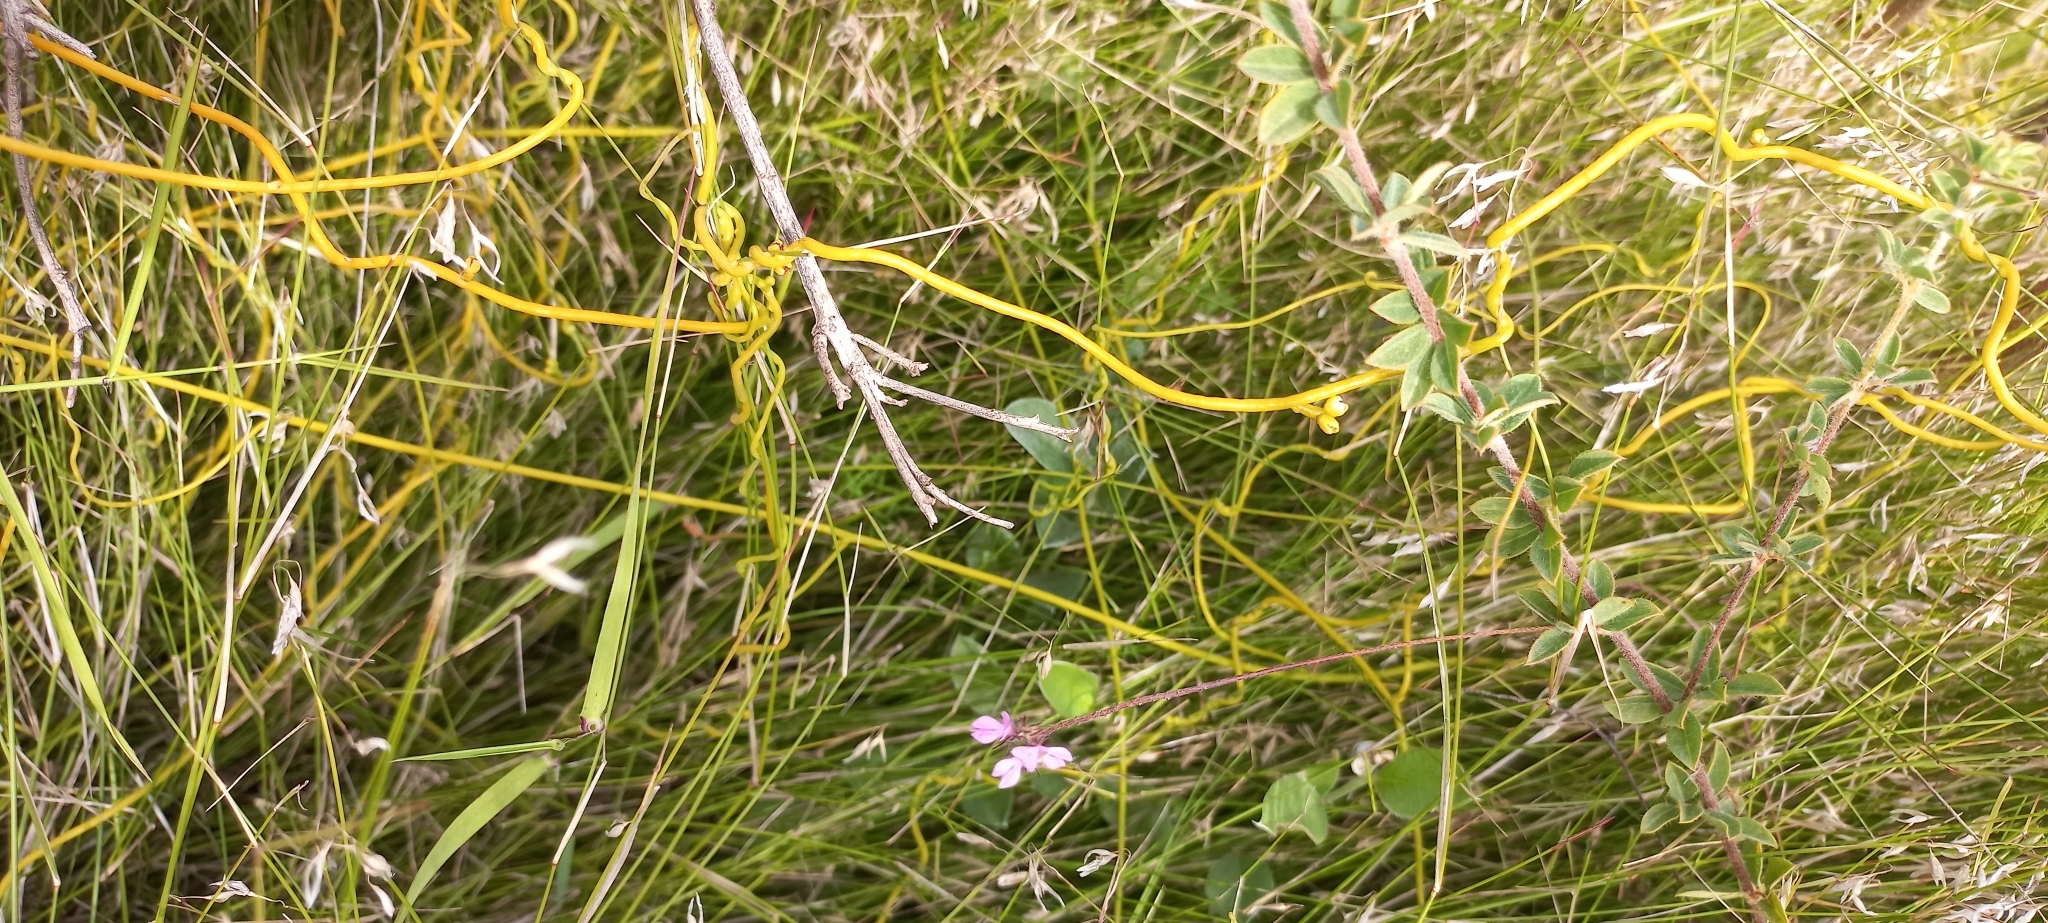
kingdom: Plantae
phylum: Tracheophyta
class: Magnoliopsida
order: Fabales
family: Fabaceae
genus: Indigofera
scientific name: Indigofera alopecuroides
